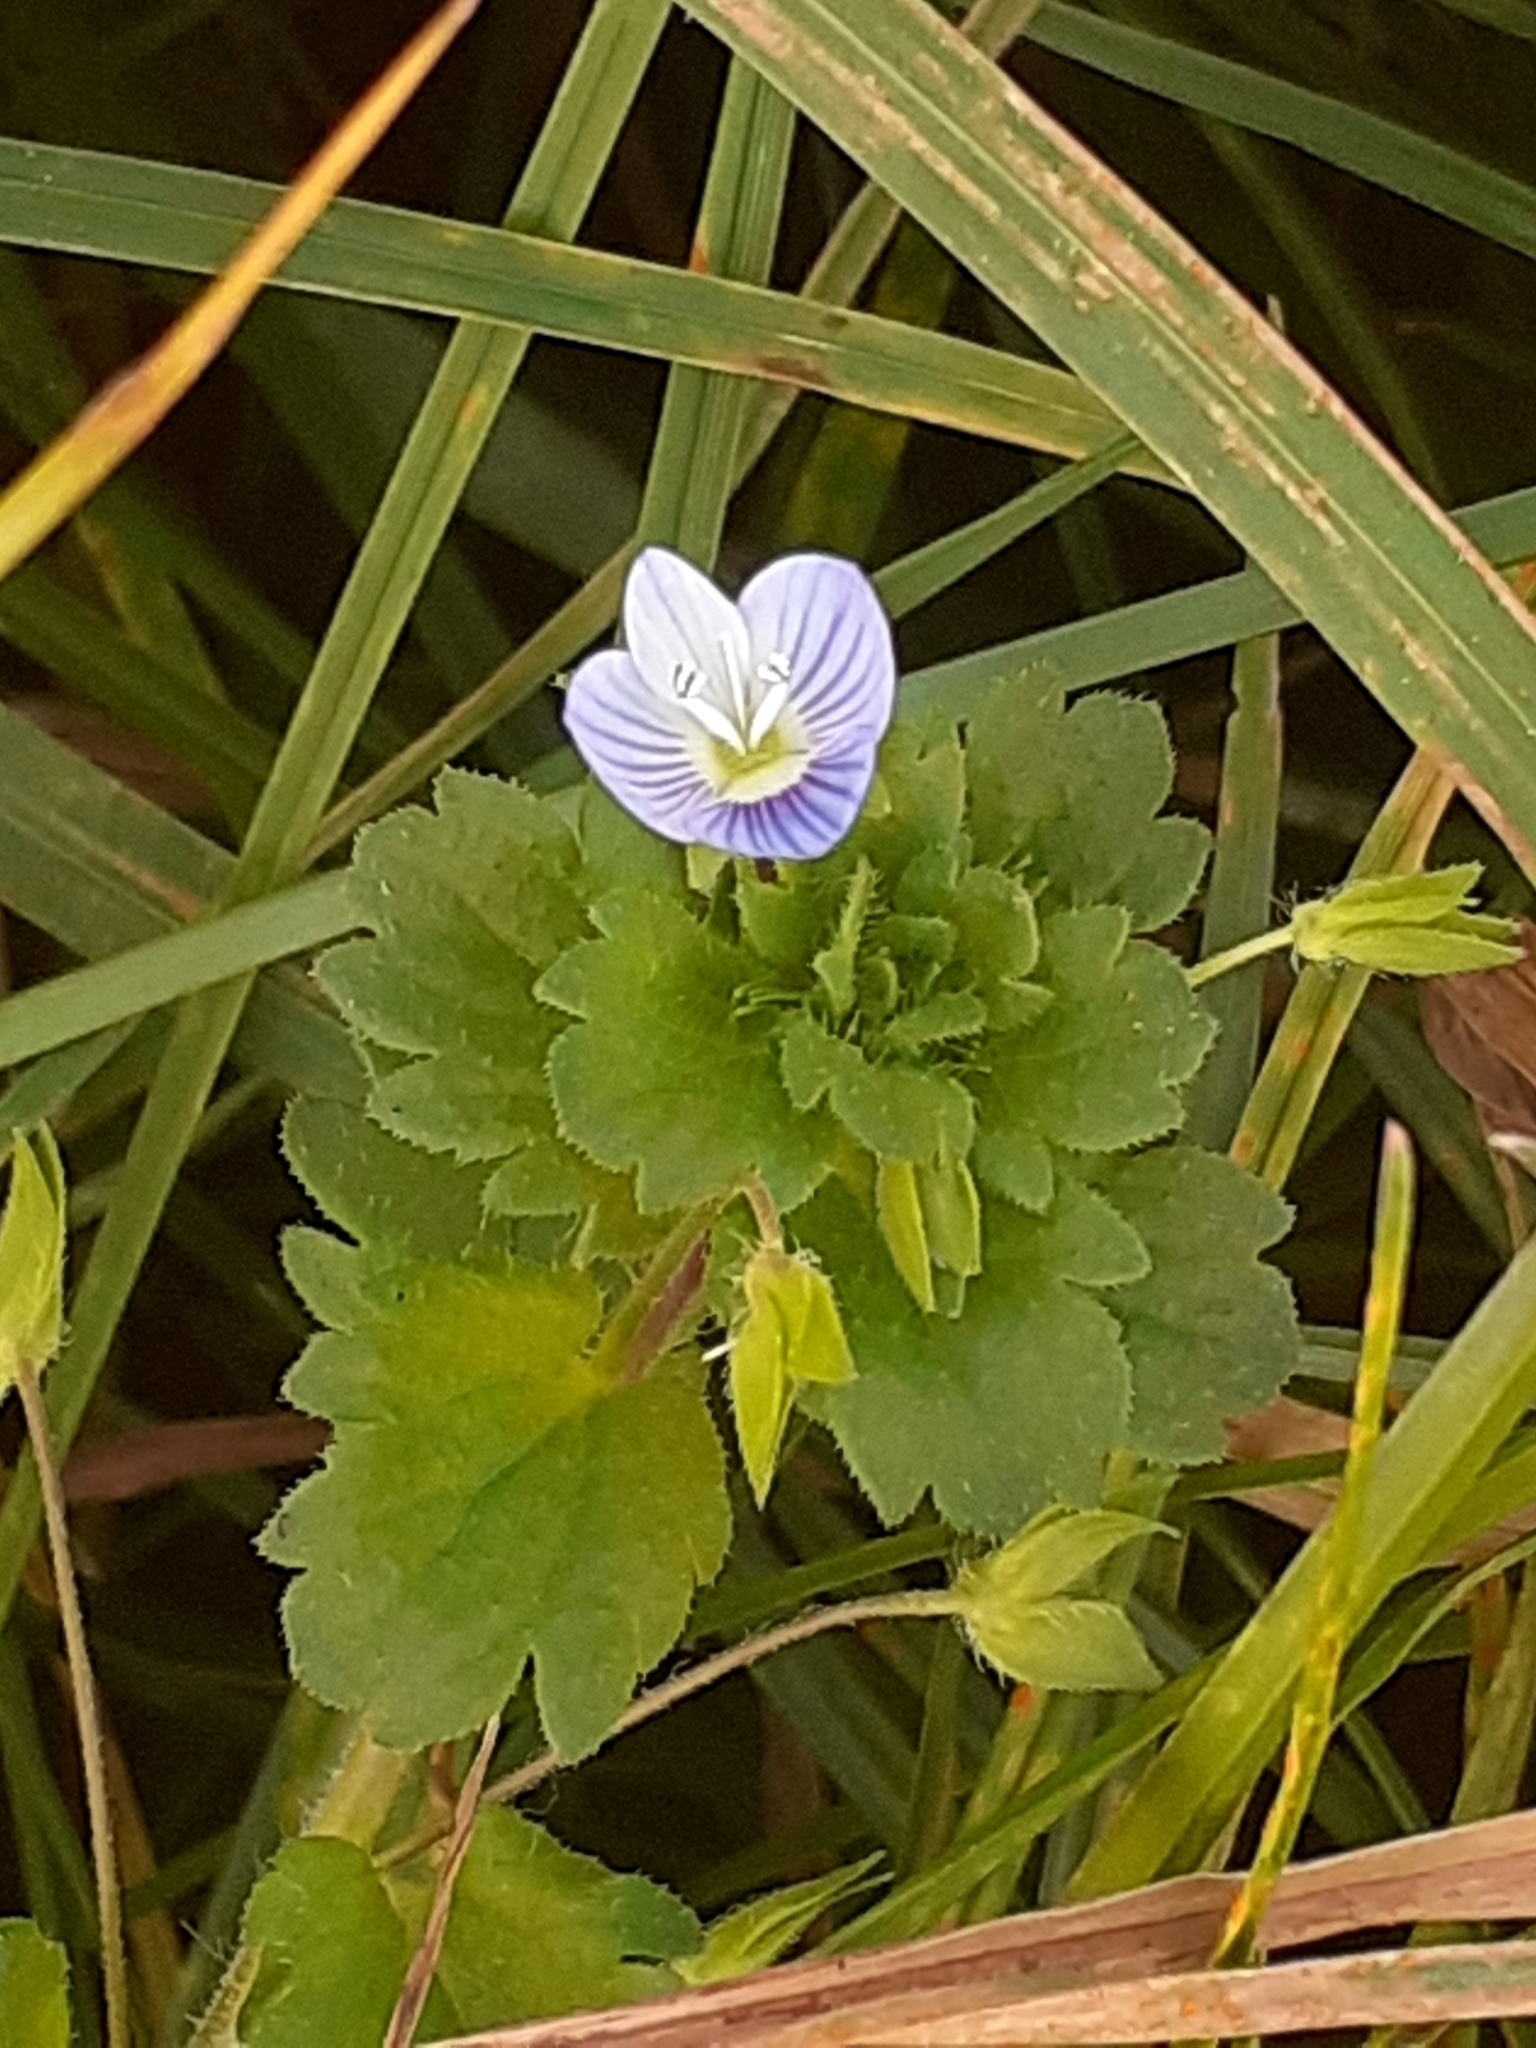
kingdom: Plantae
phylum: Tracheophyta
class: Magnoliopsida
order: Lamiales
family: Plantaginaceae
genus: Veronica
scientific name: Veronica persica
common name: Common field-speedwell
